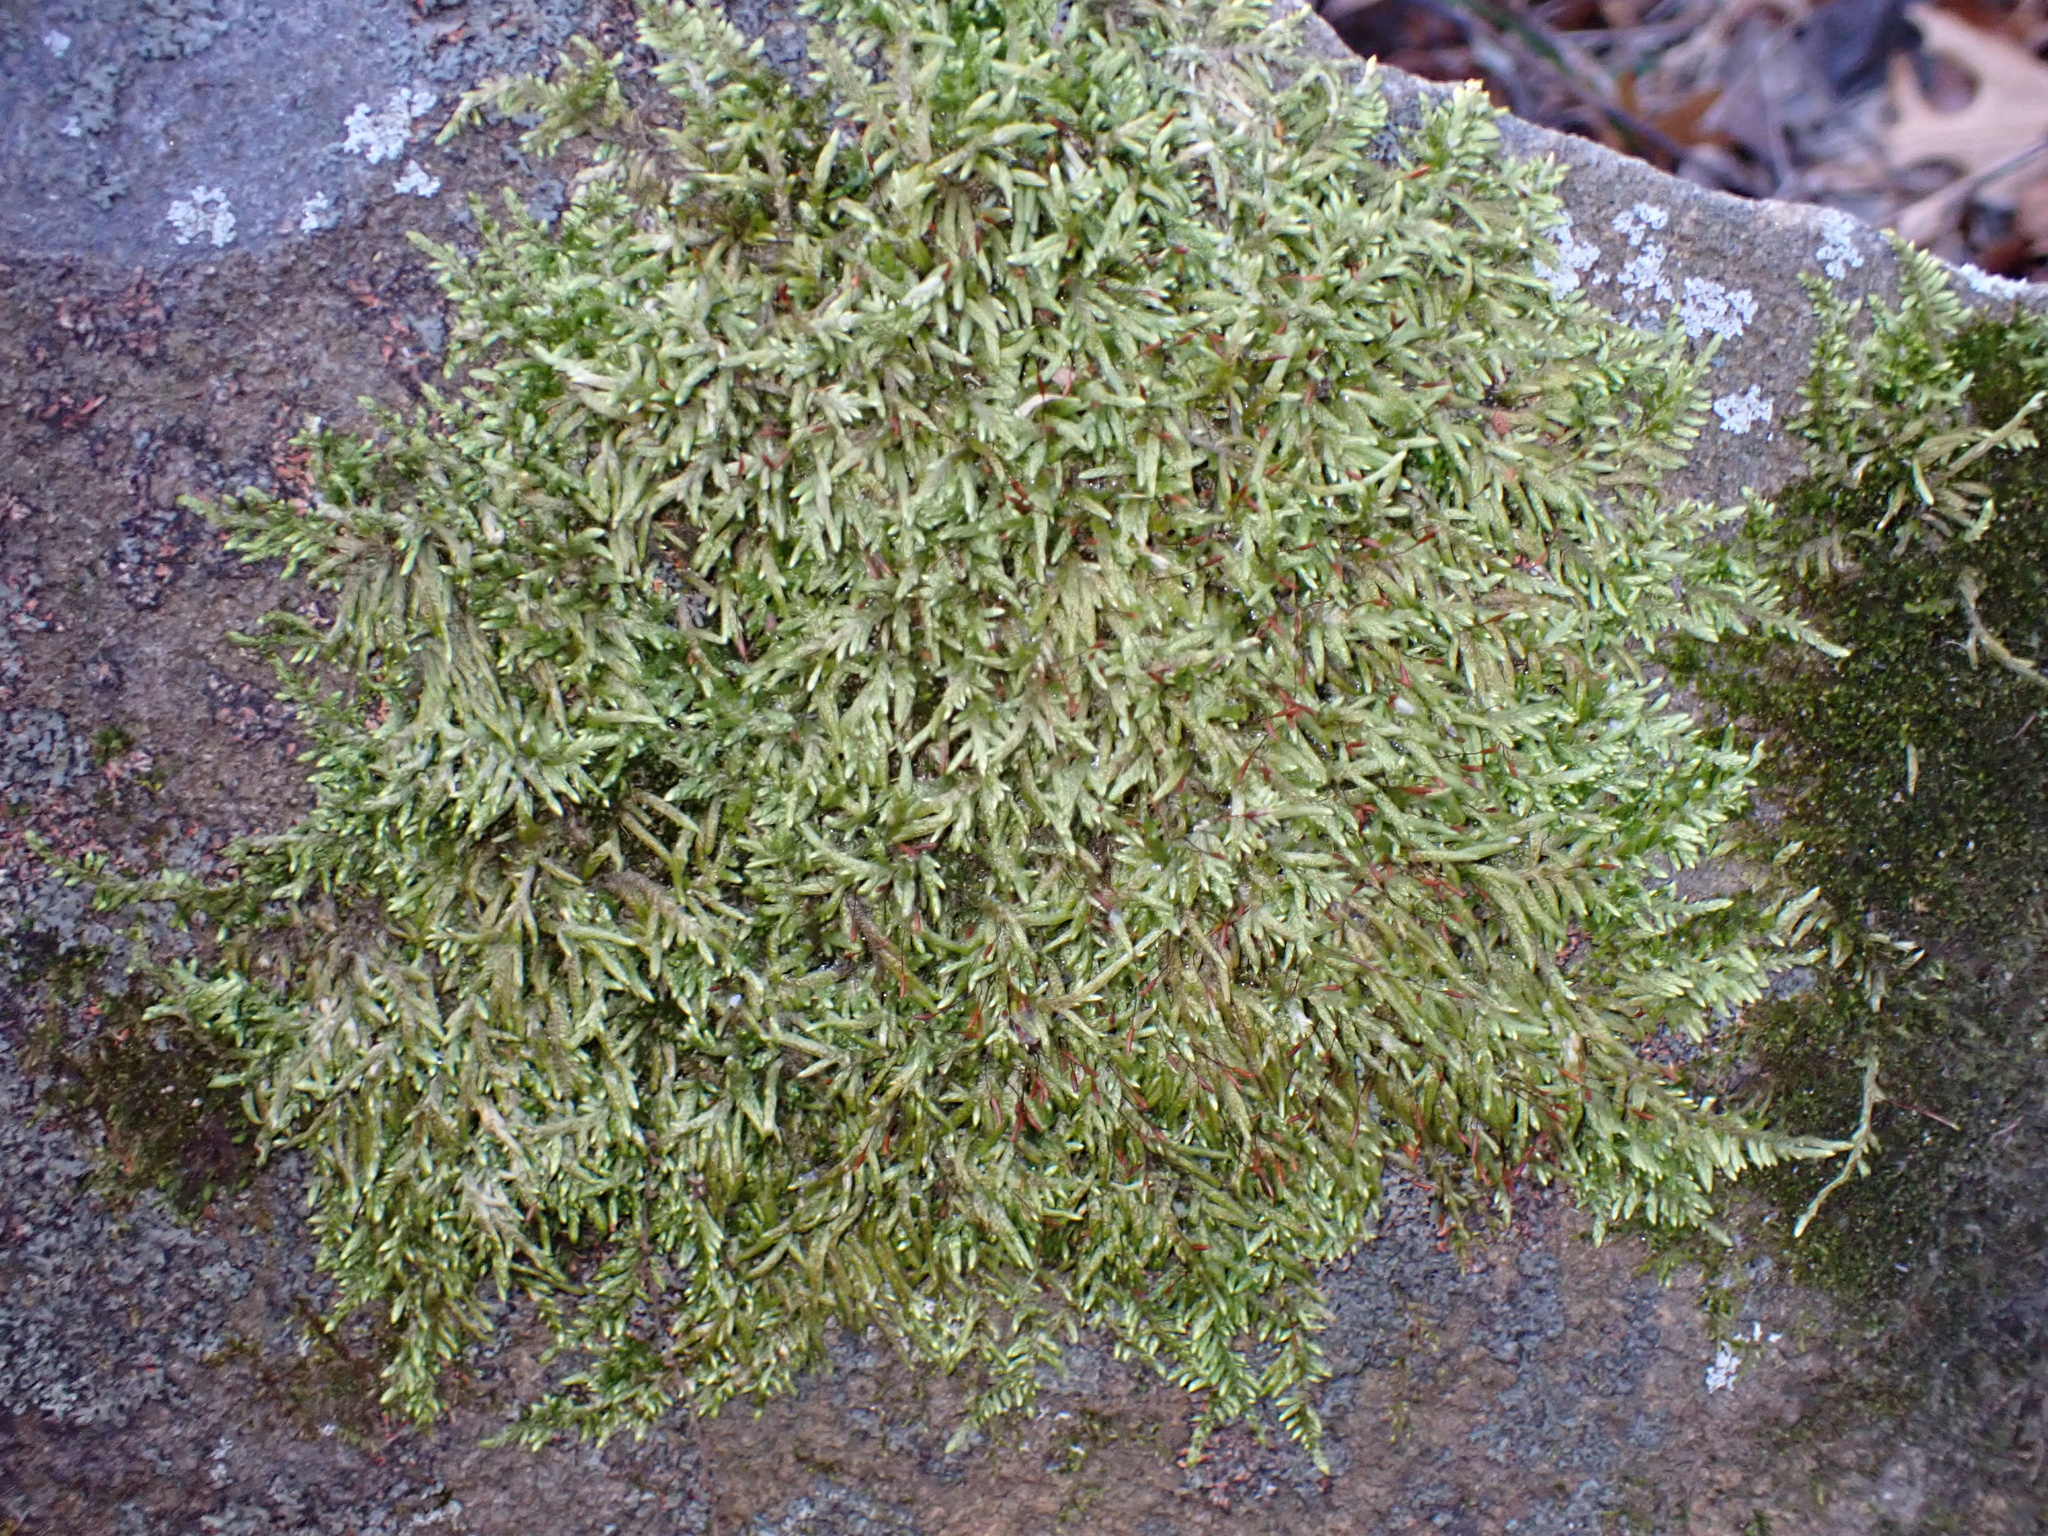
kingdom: Plantae
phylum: Bryophyta
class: Bryopsida
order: Hypnales
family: Entodontaceae
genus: Entodon
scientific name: Entodon seductrix
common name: Round-stemmed entodon moss
